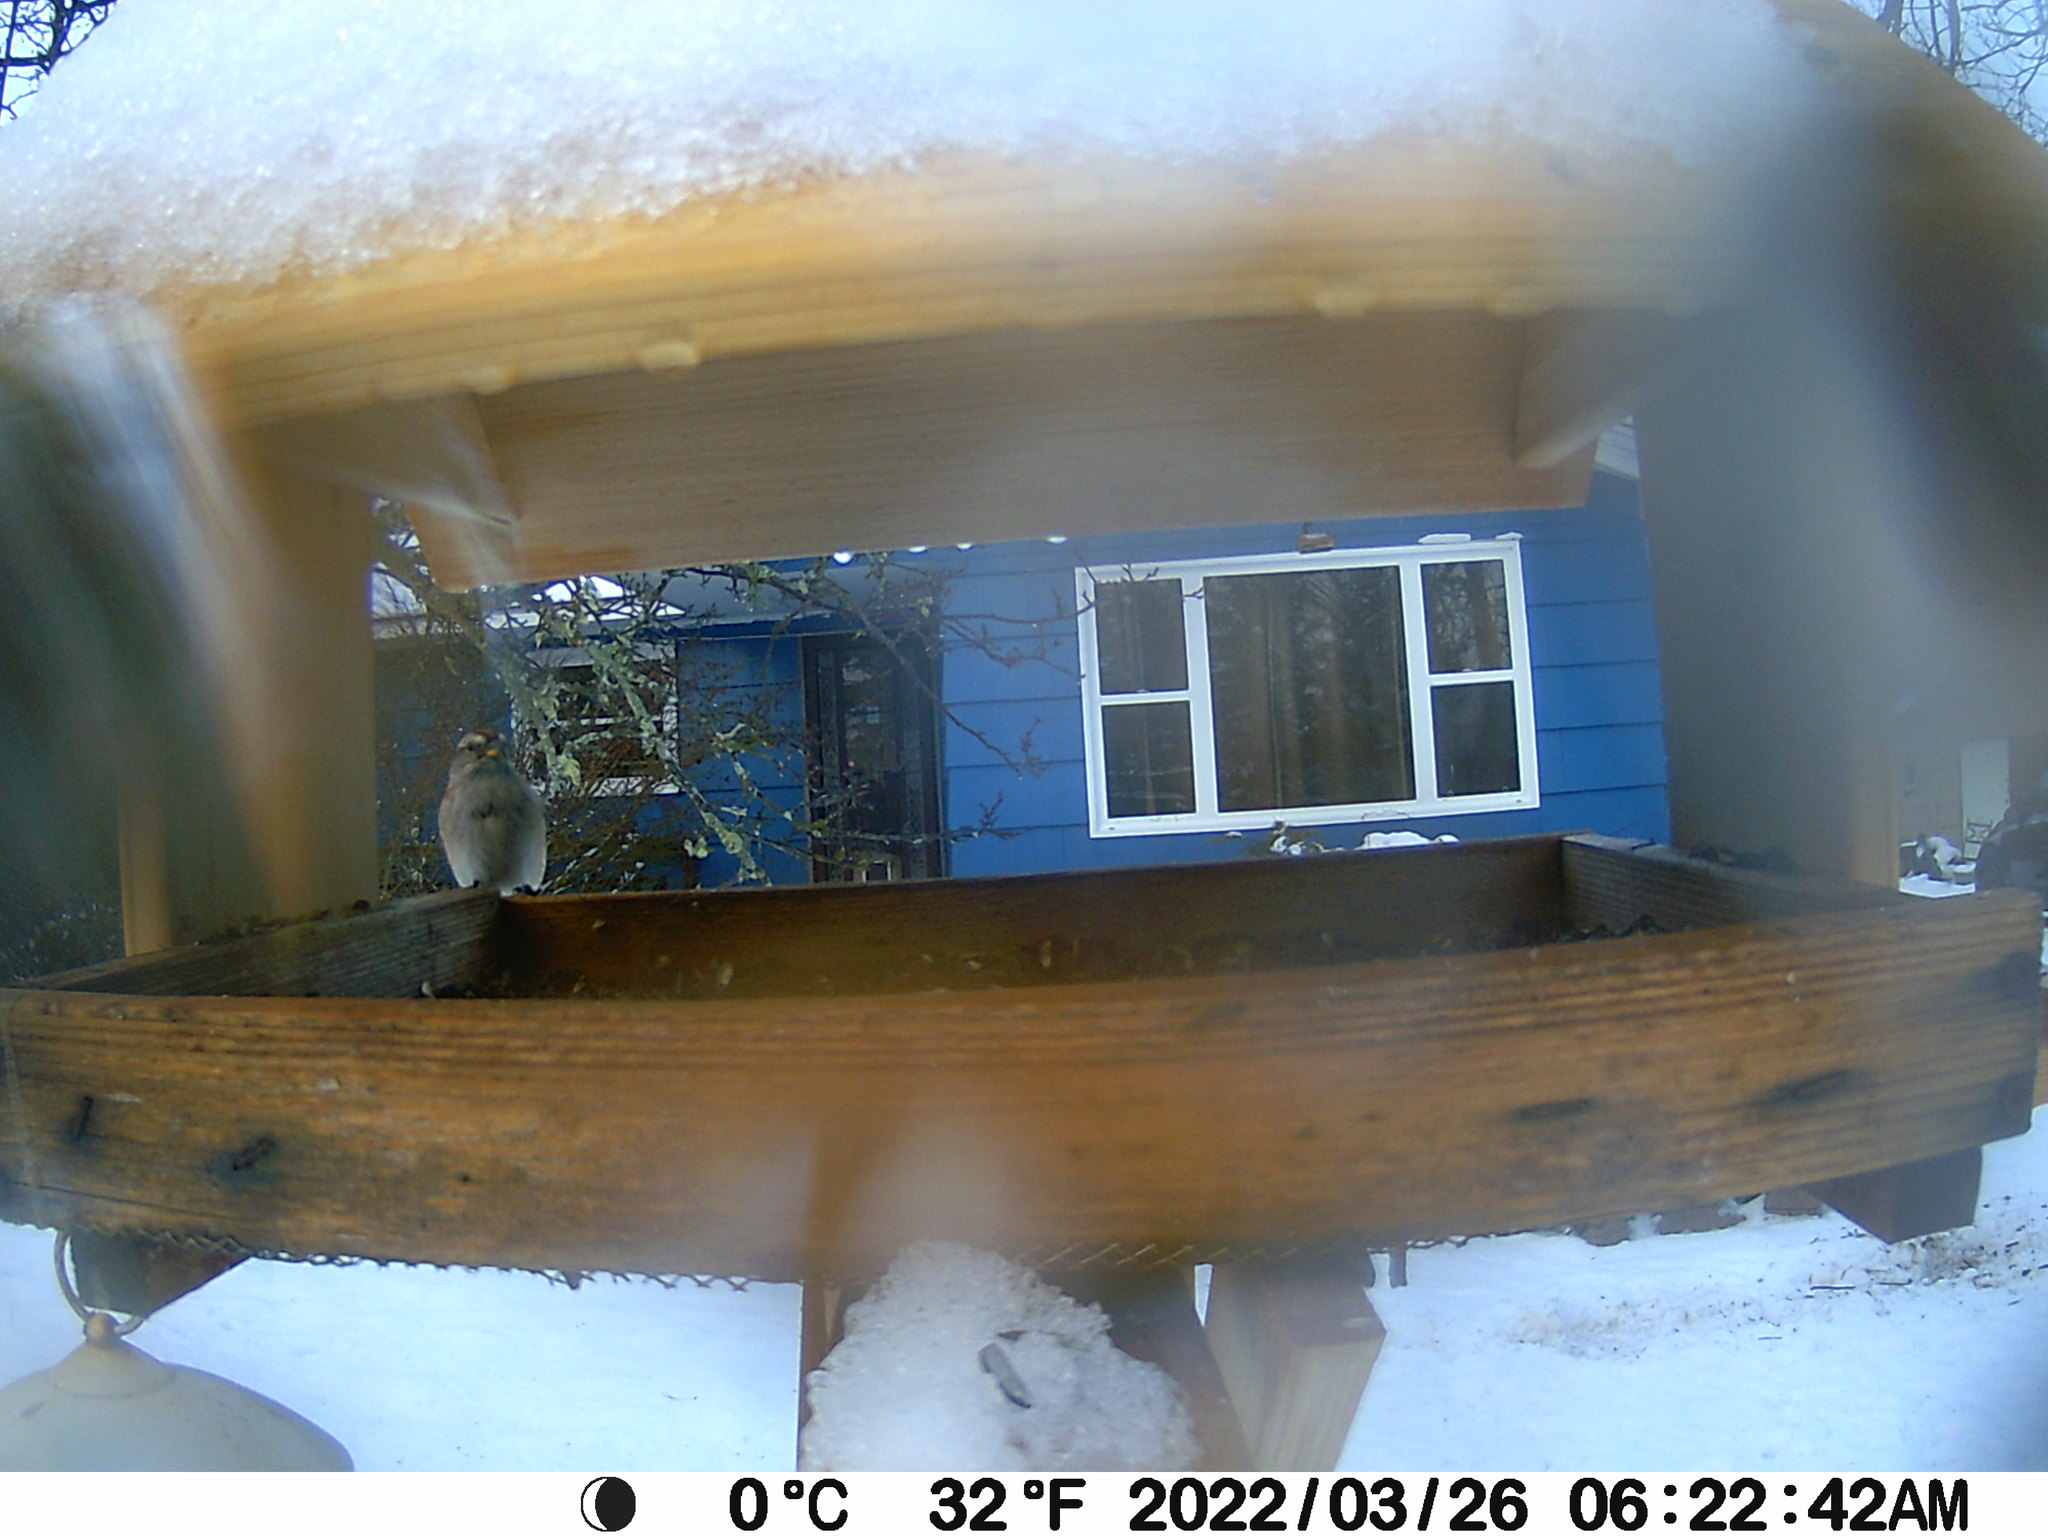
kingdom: Animalia
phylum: Chordata
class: Aves
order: Passeriformes
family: Passerellidae
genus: Spizelloides
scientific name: Spizelloides arborea
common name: American tree sparrow
